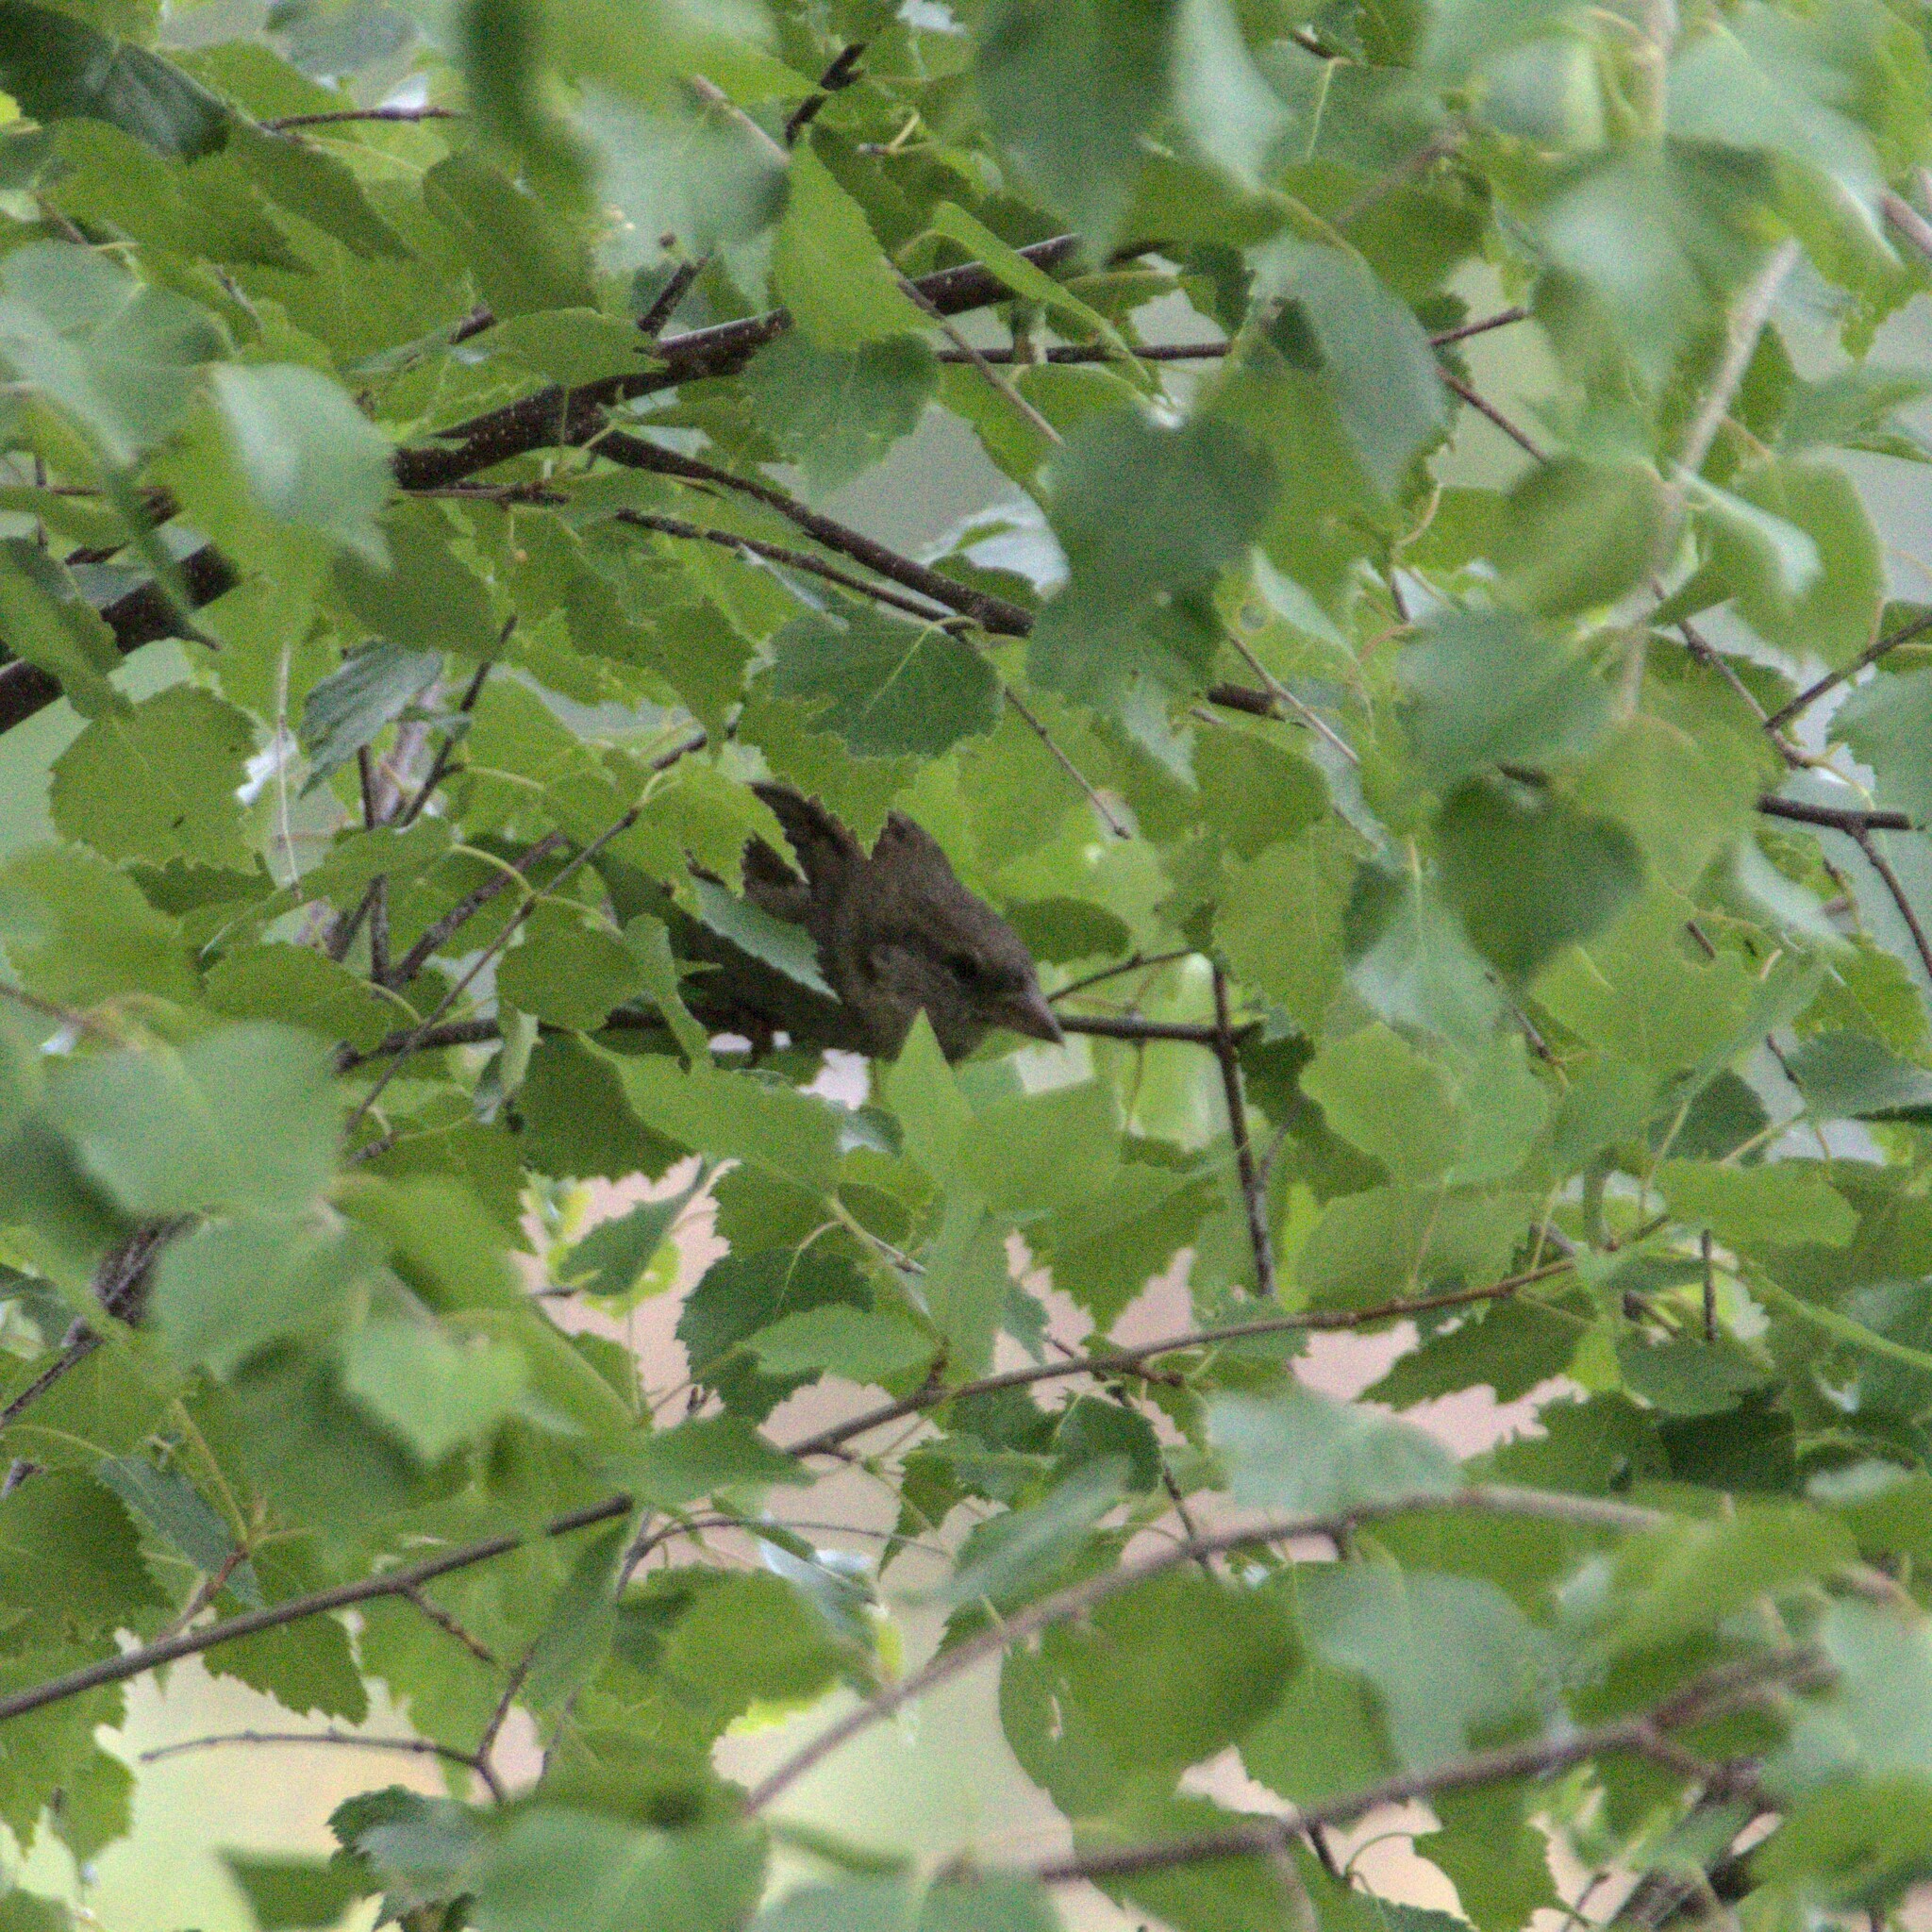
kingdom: Animalia
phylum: Chordata
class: Aves
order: Passeriformes
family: Passeridae
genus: Passer
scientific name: Passer domesticus
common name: House sparrow
